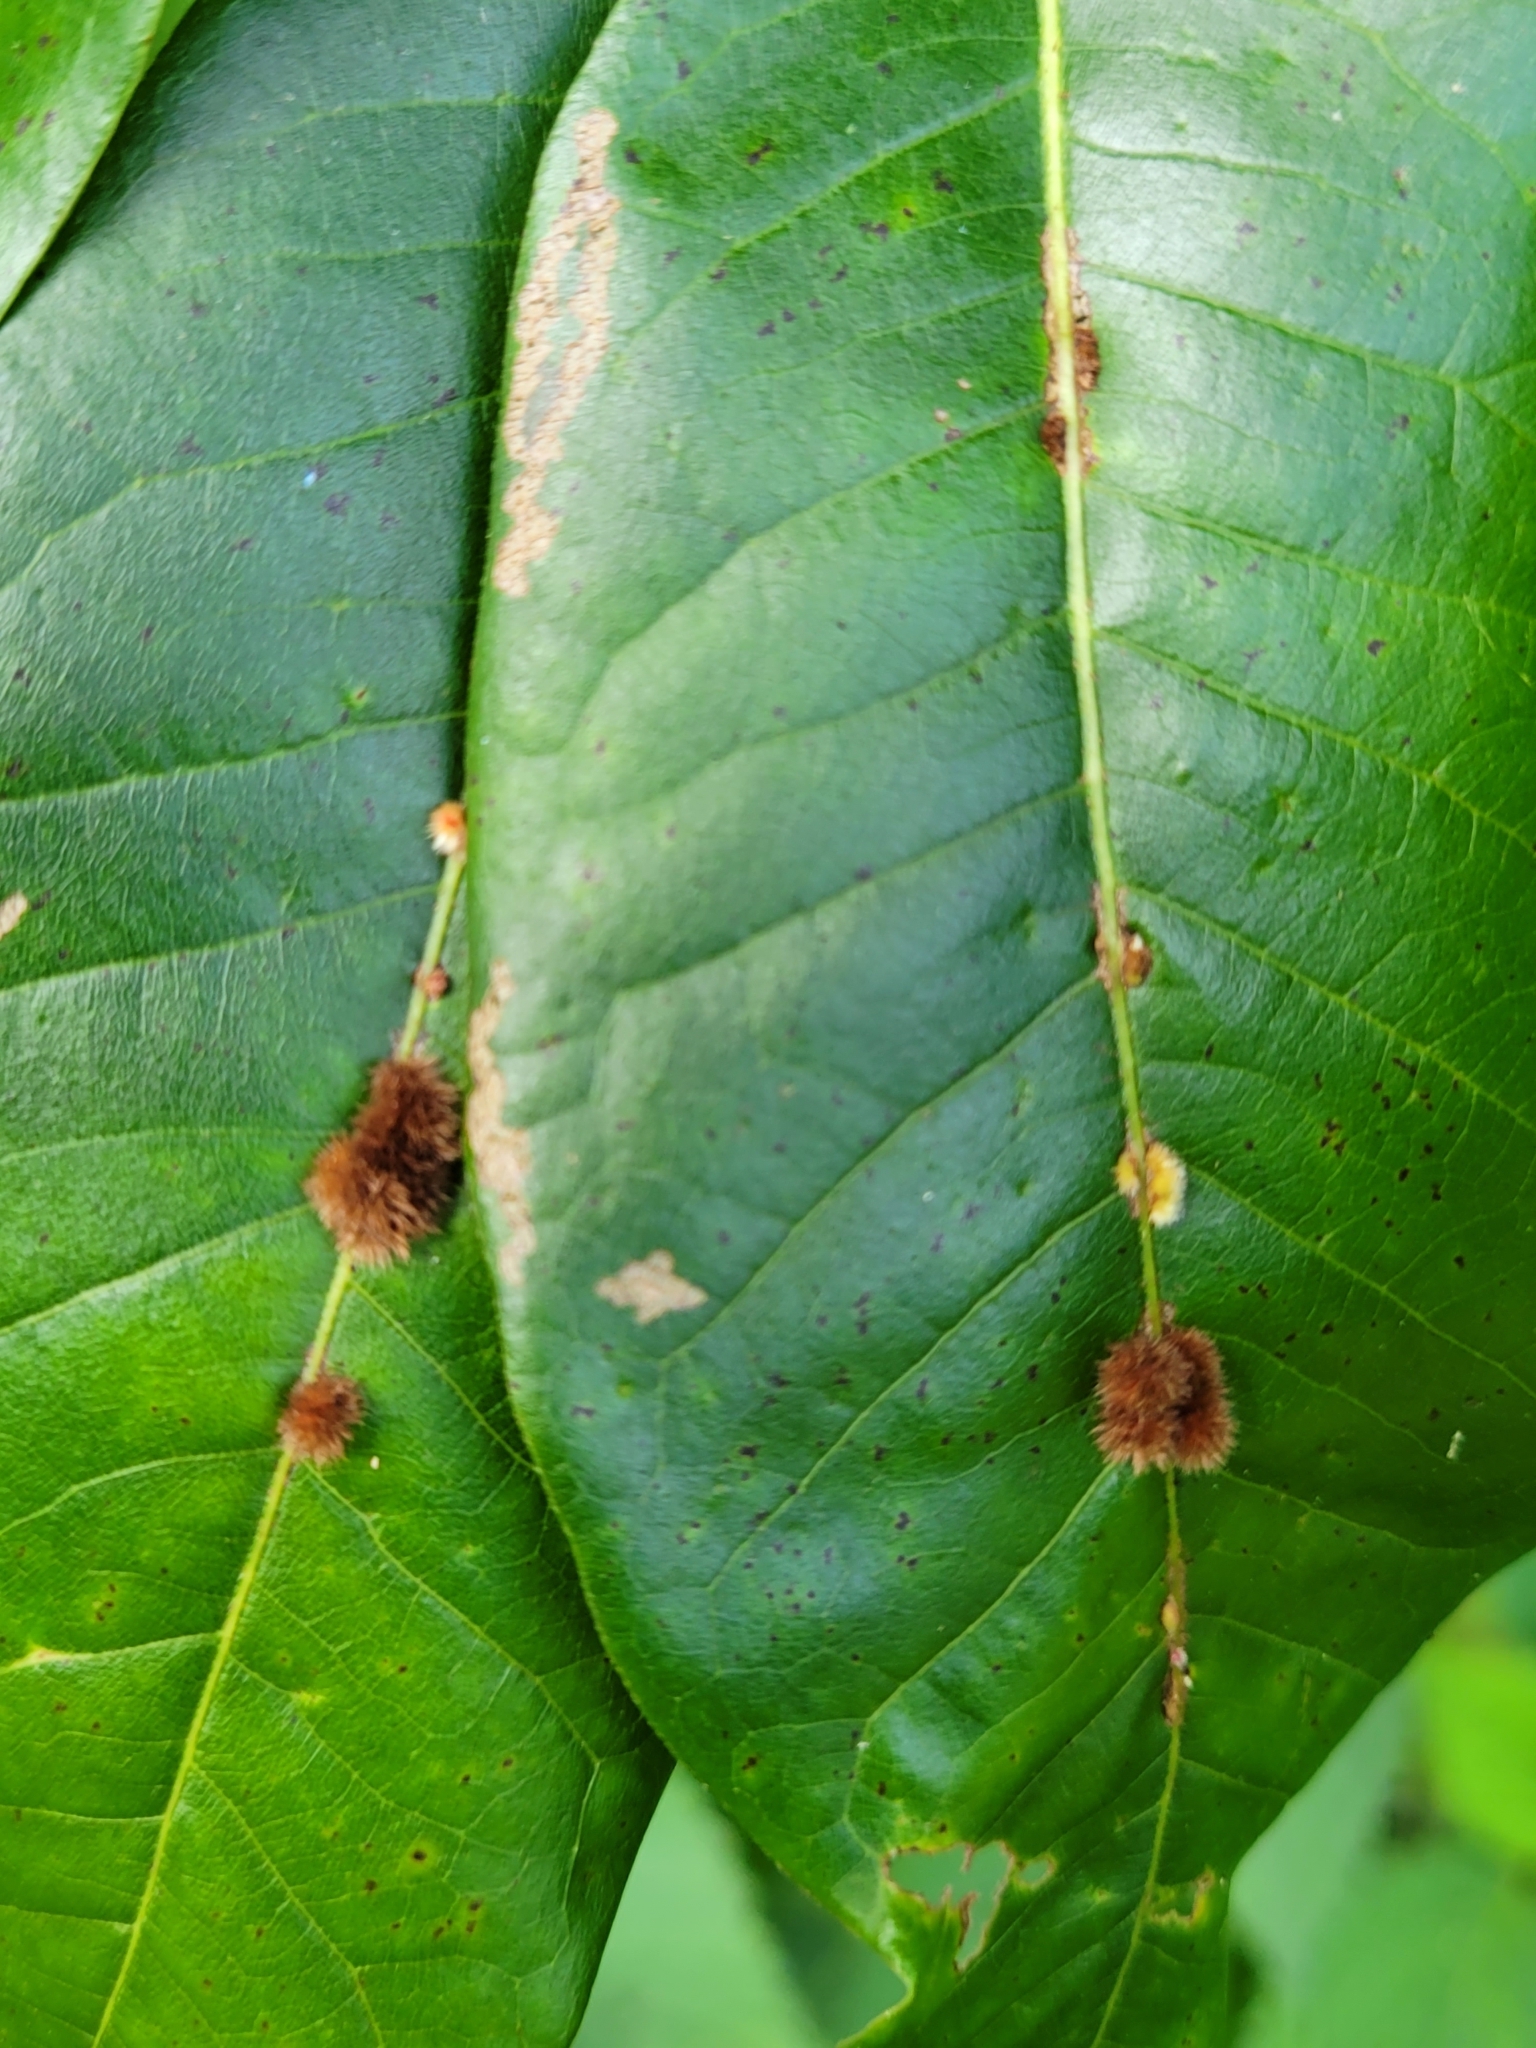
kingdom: Animalia
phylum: Arthropoda
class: Insecta
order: Hymenoptera
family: Cynipidae
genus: Callirhytis
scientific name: Callirhytis
